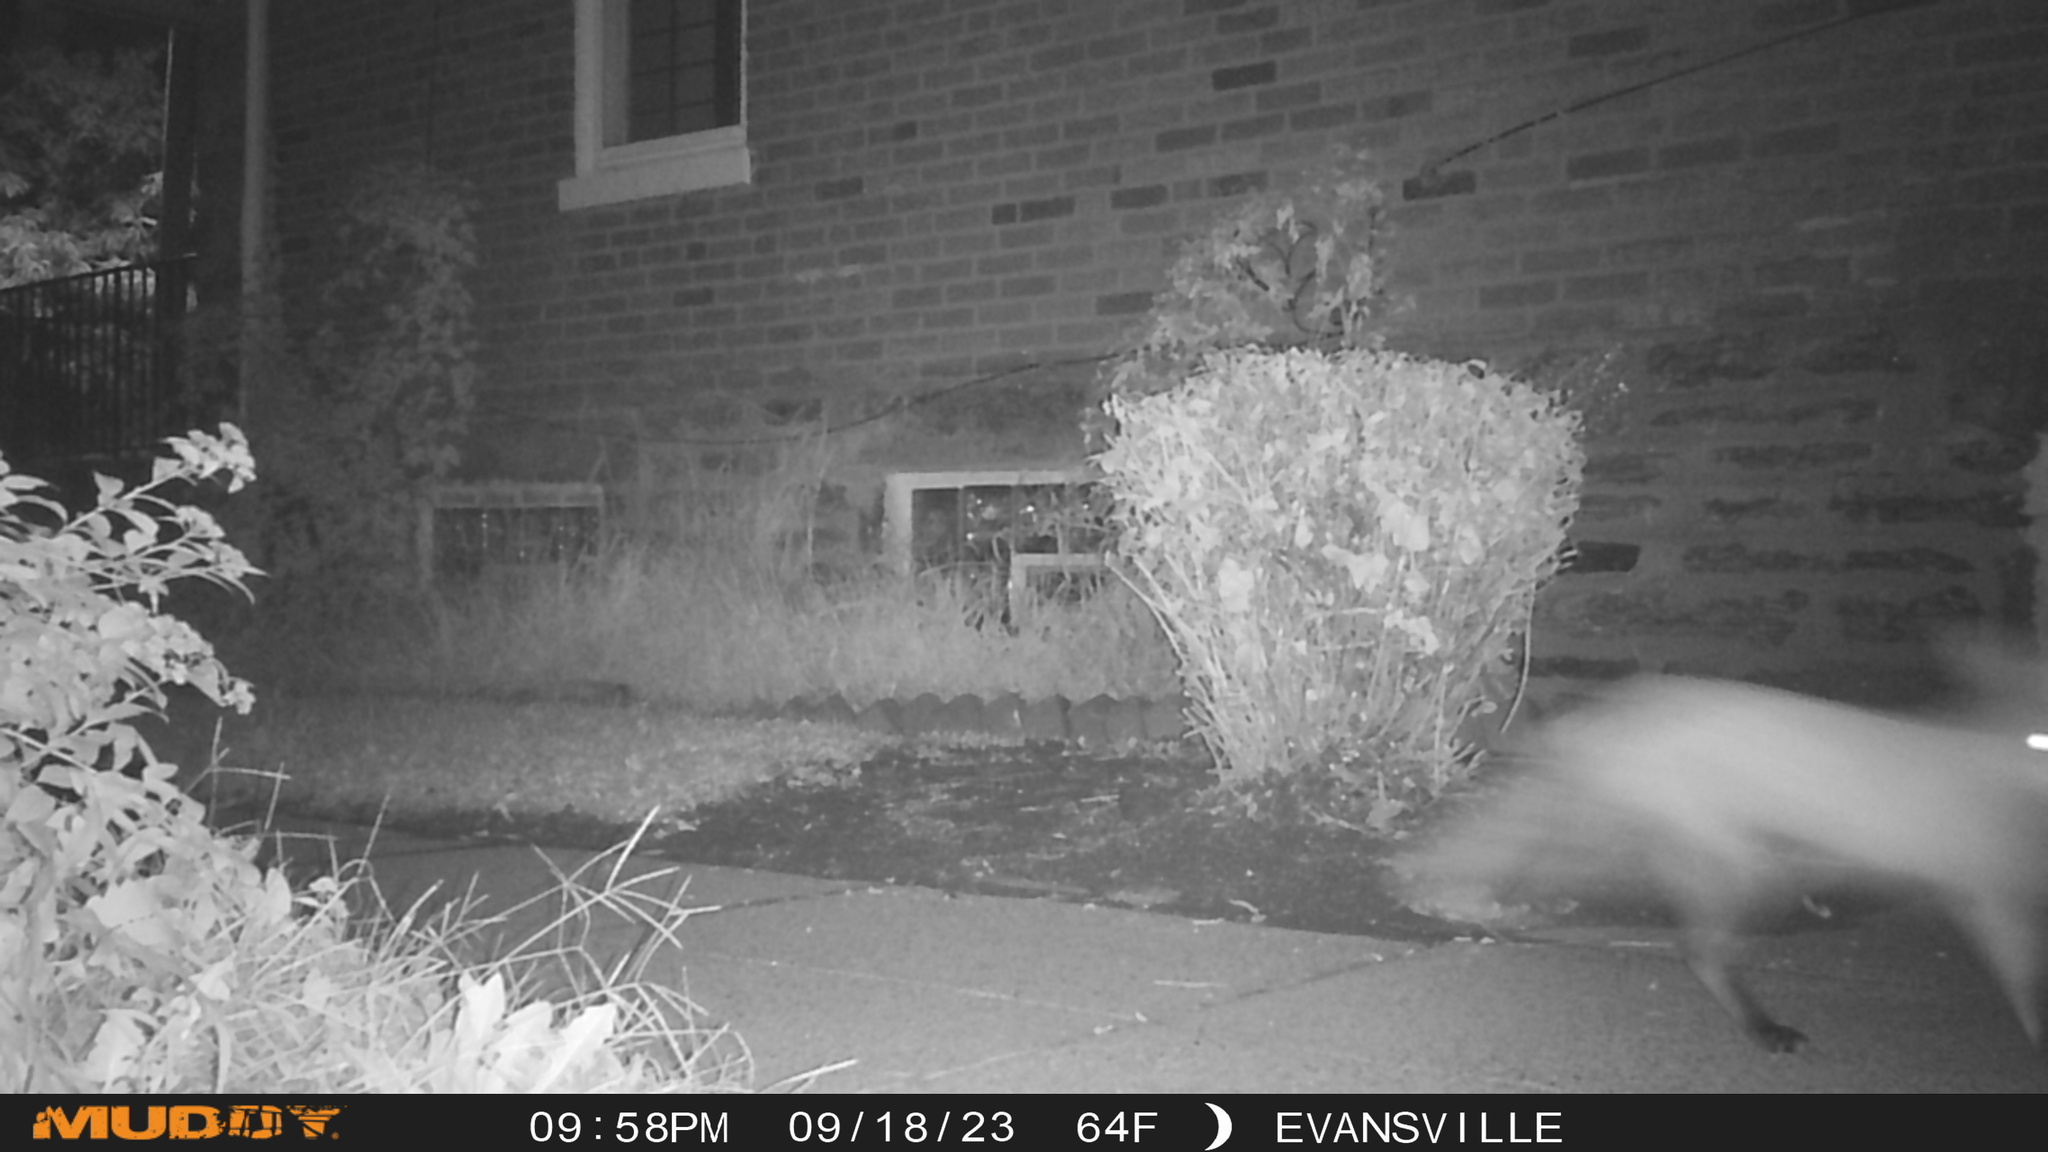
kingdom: Animalia
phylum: Chordata
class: Mammalia
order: Carnivora
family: Canidae
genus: Vulpes
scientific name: Vulpes vulpes
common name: Red fox
